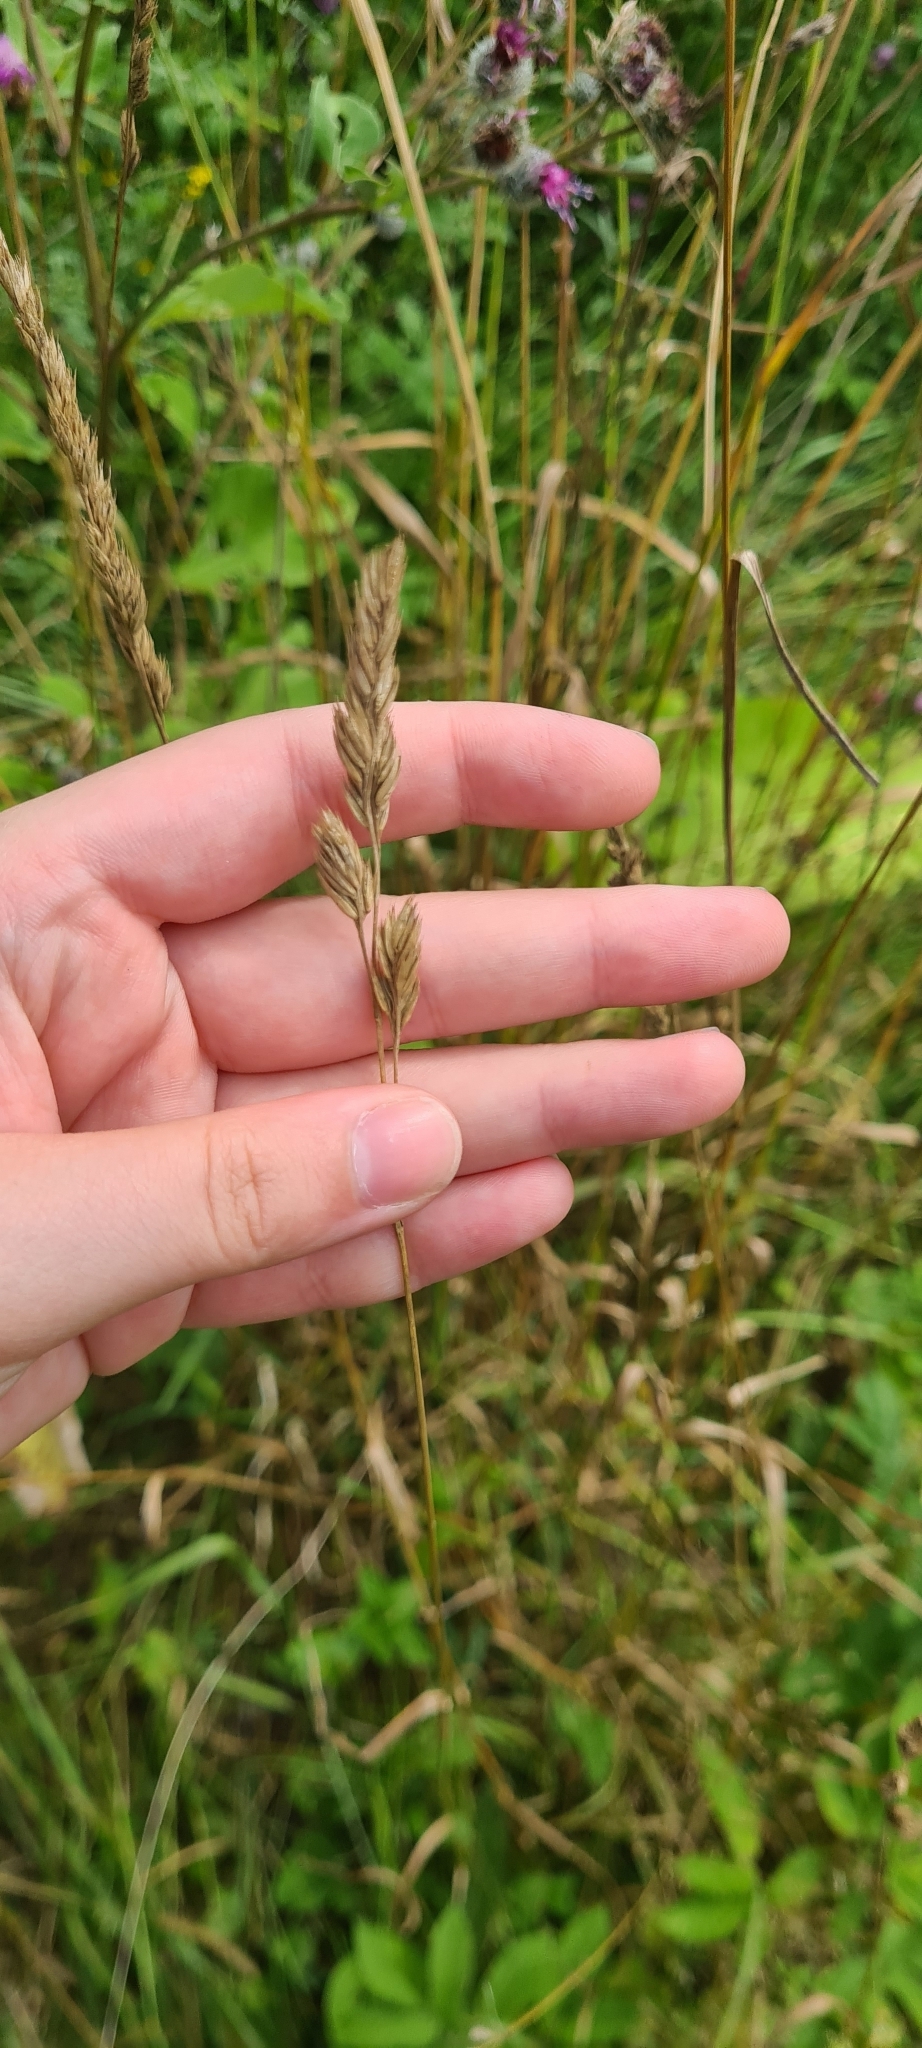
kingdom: Plantae
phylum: Tracheophyta
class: Liliopsida
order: Poales
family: Poaceae
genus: Dactylis
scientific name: Dactylis glomerata
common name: Orchardgrass
